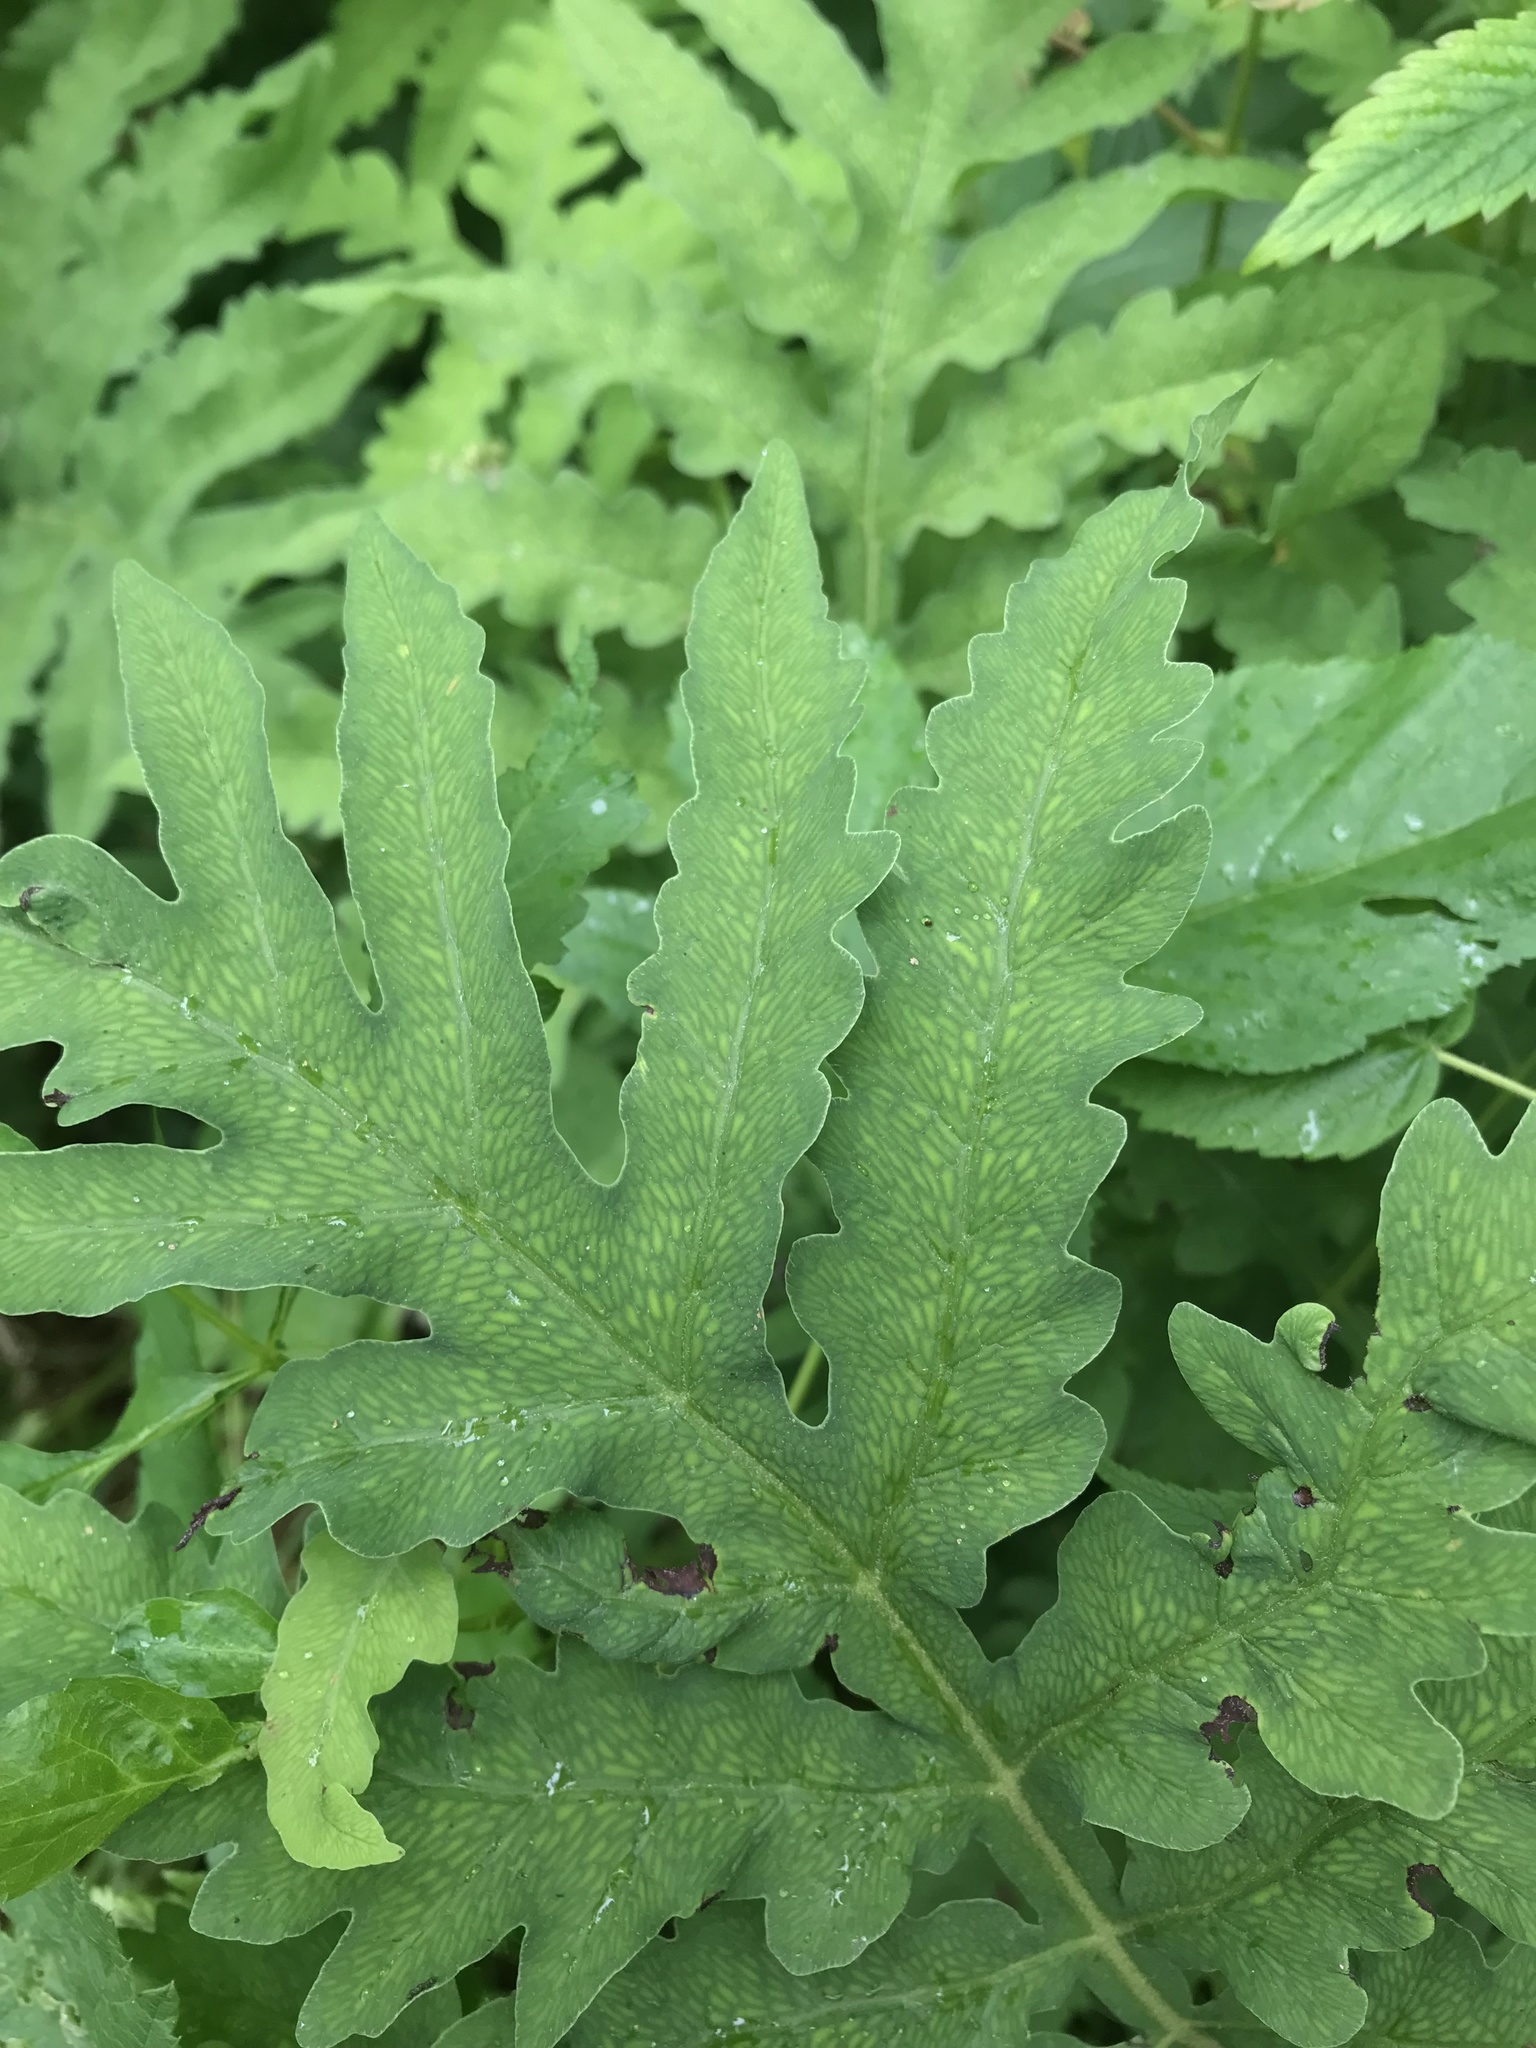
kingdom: Plantae
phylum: Tracheophyta
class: Polypodiopsida
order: Polypodiales
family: Onocleaceae
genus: Onoclea
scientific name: Onoclea sensibilis
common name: Sensitive fern
